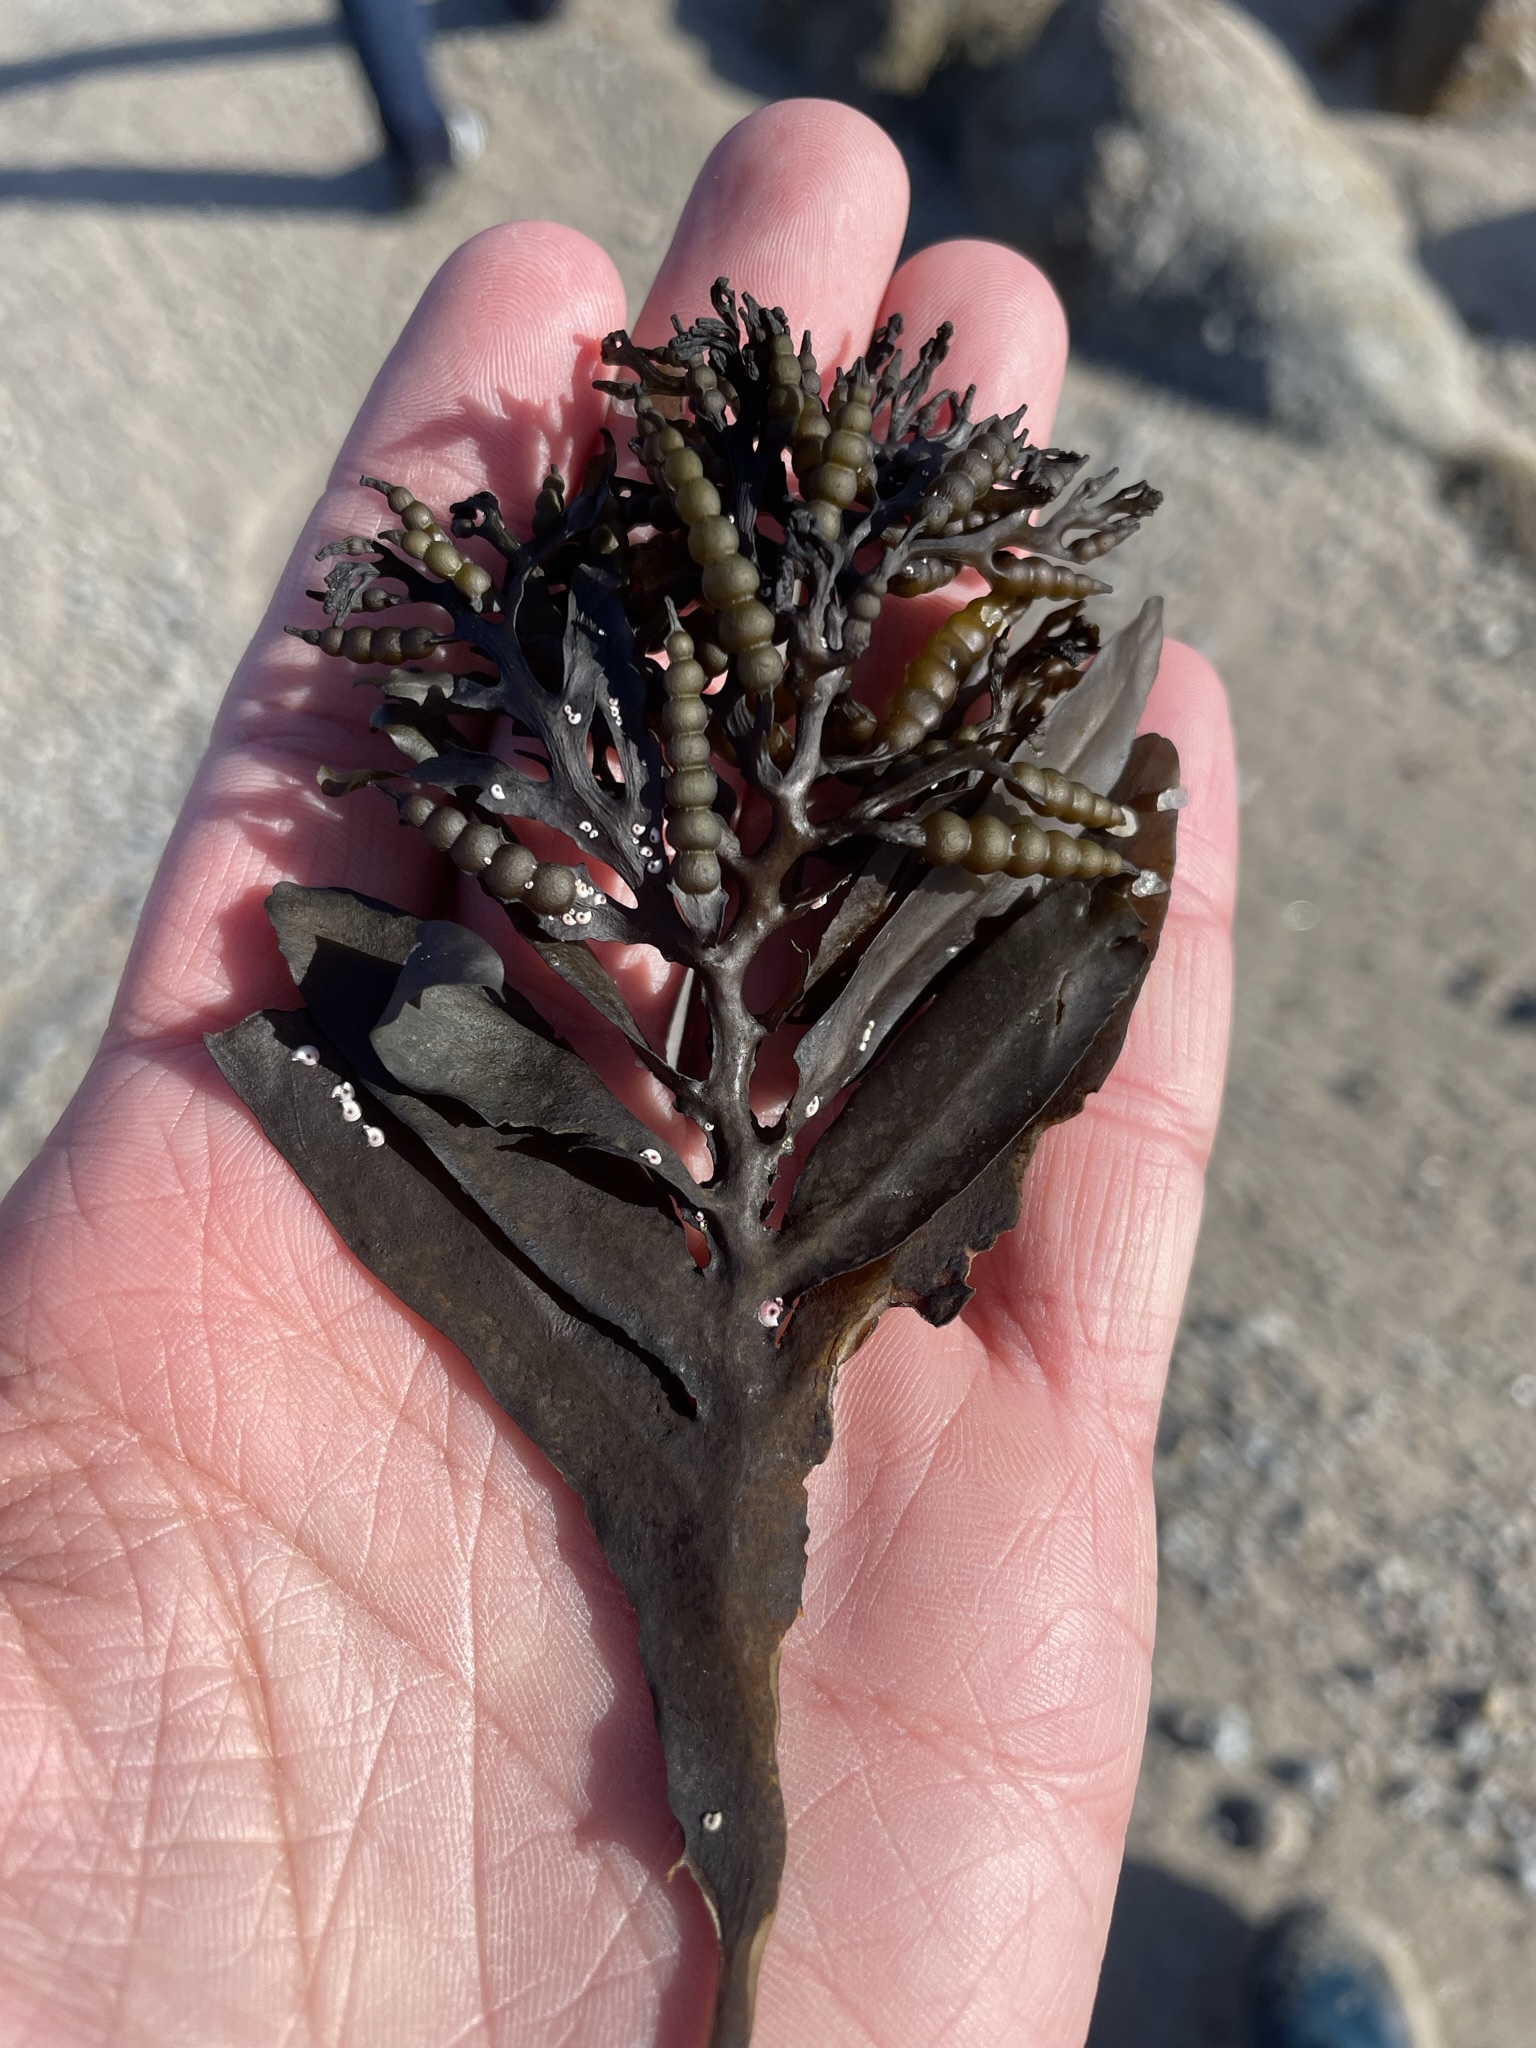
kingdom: Chromista
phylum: Ochrophyta
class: Phaeophyceae
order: Fucales
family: Sargassaceae
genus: Stephanocystis
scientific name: Stephanocystis
